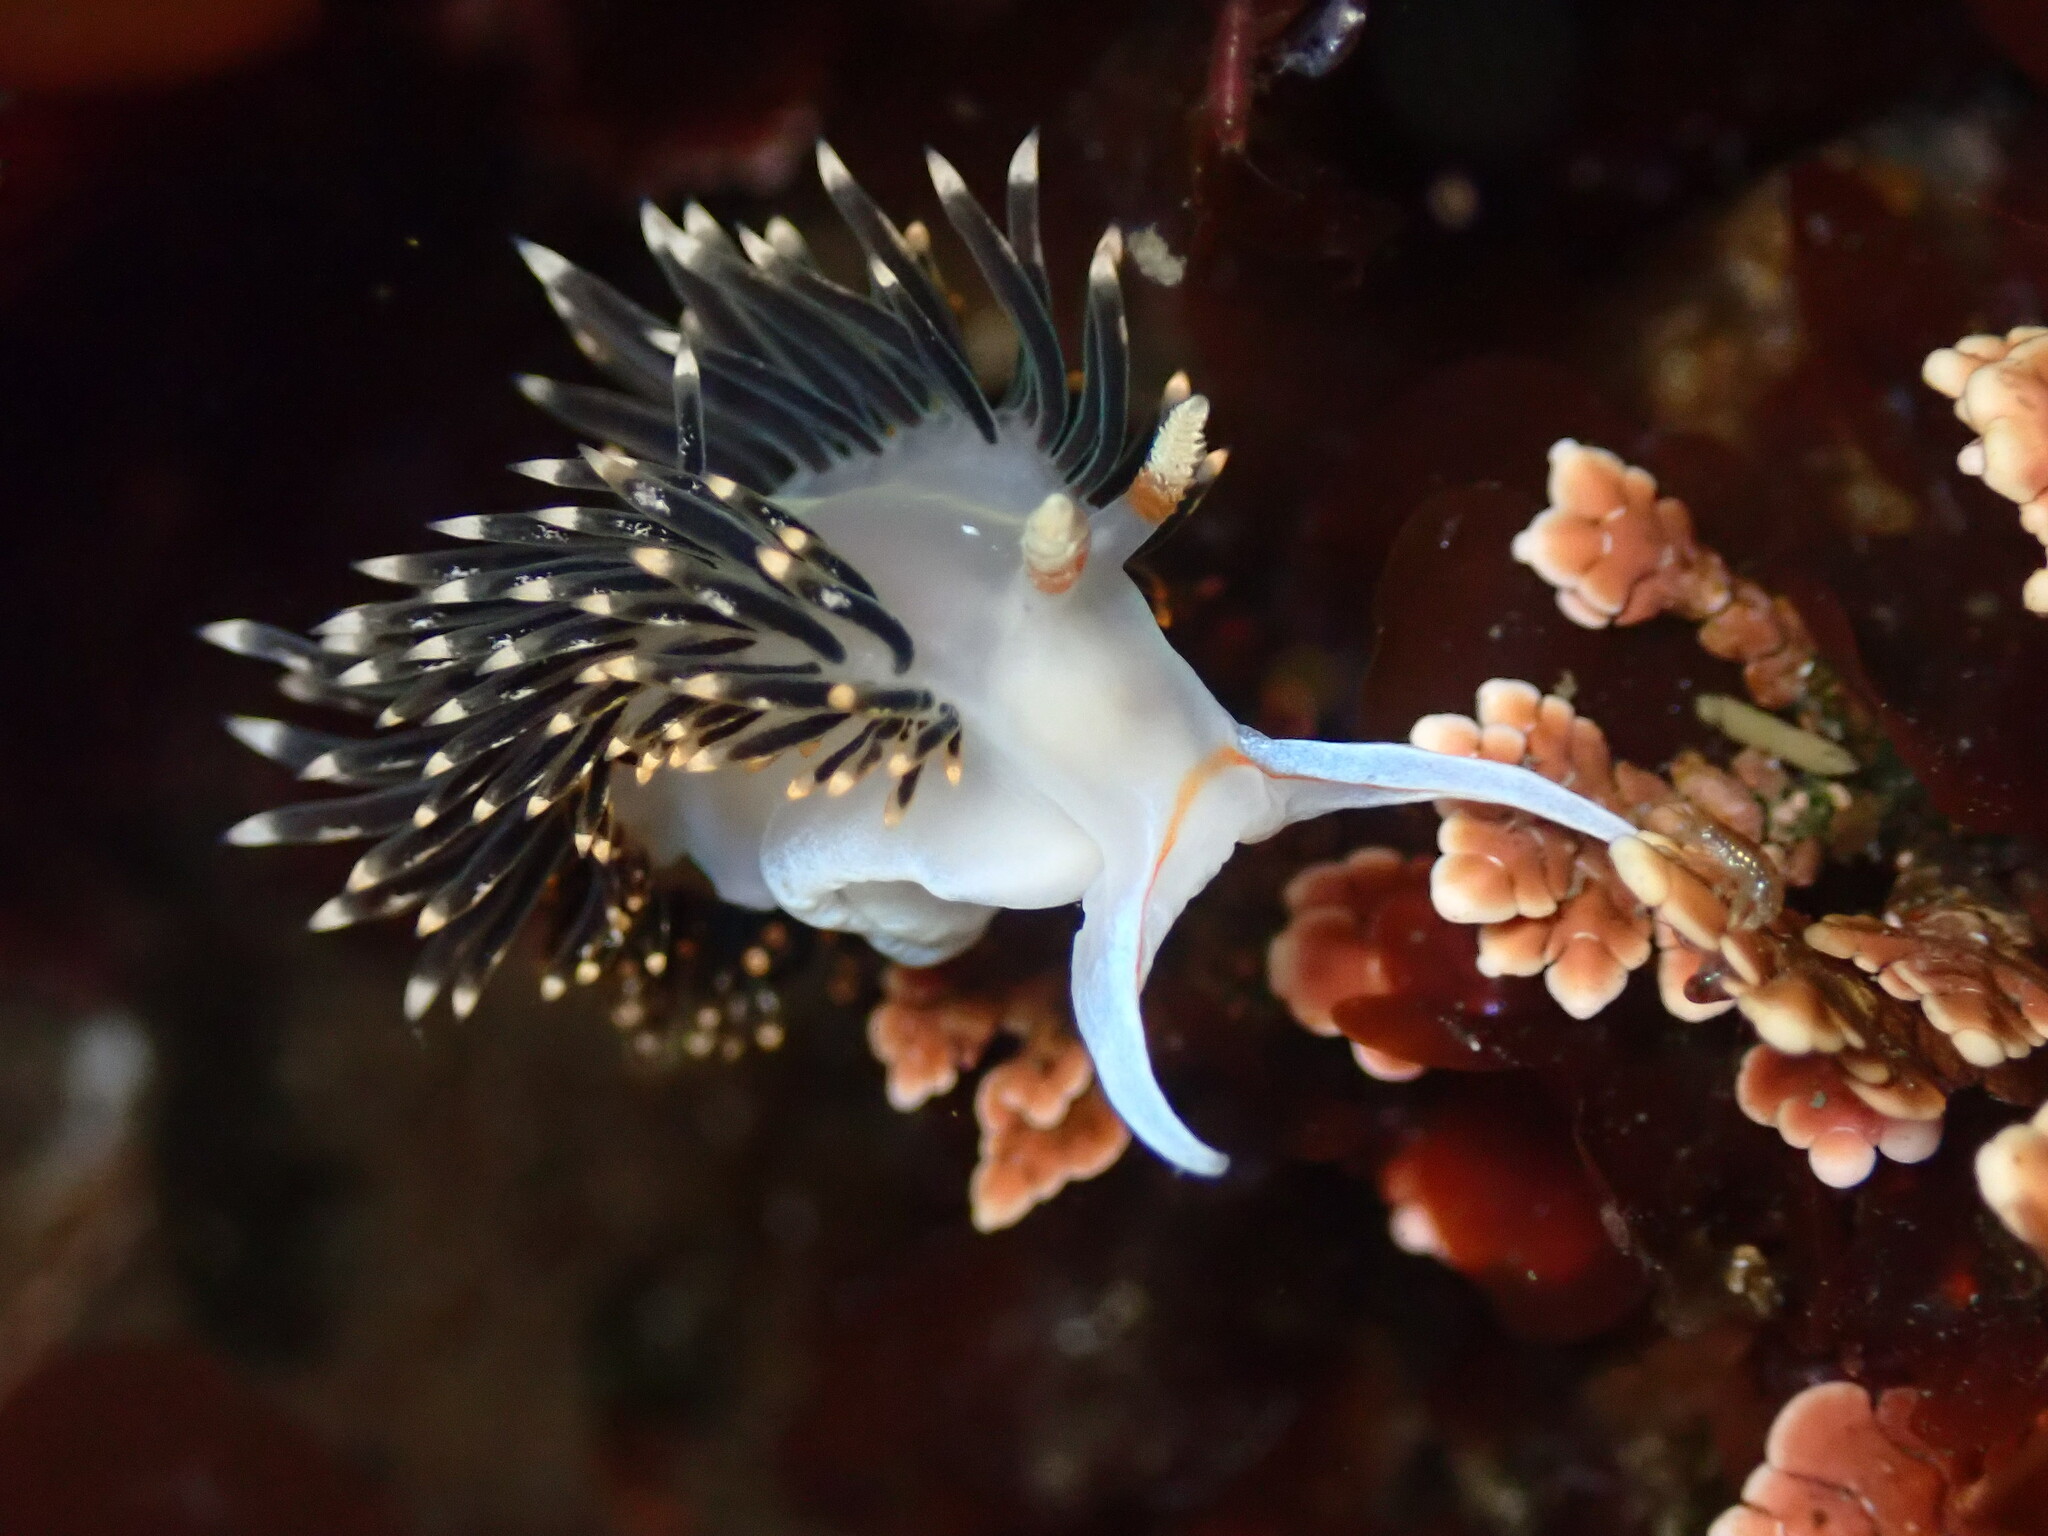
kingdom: Animalia
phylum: Mollusca
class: Gastropoda
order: Nudibranchia
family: Facelinidae
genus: Phidiana
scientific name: Phidiana hiltoni
